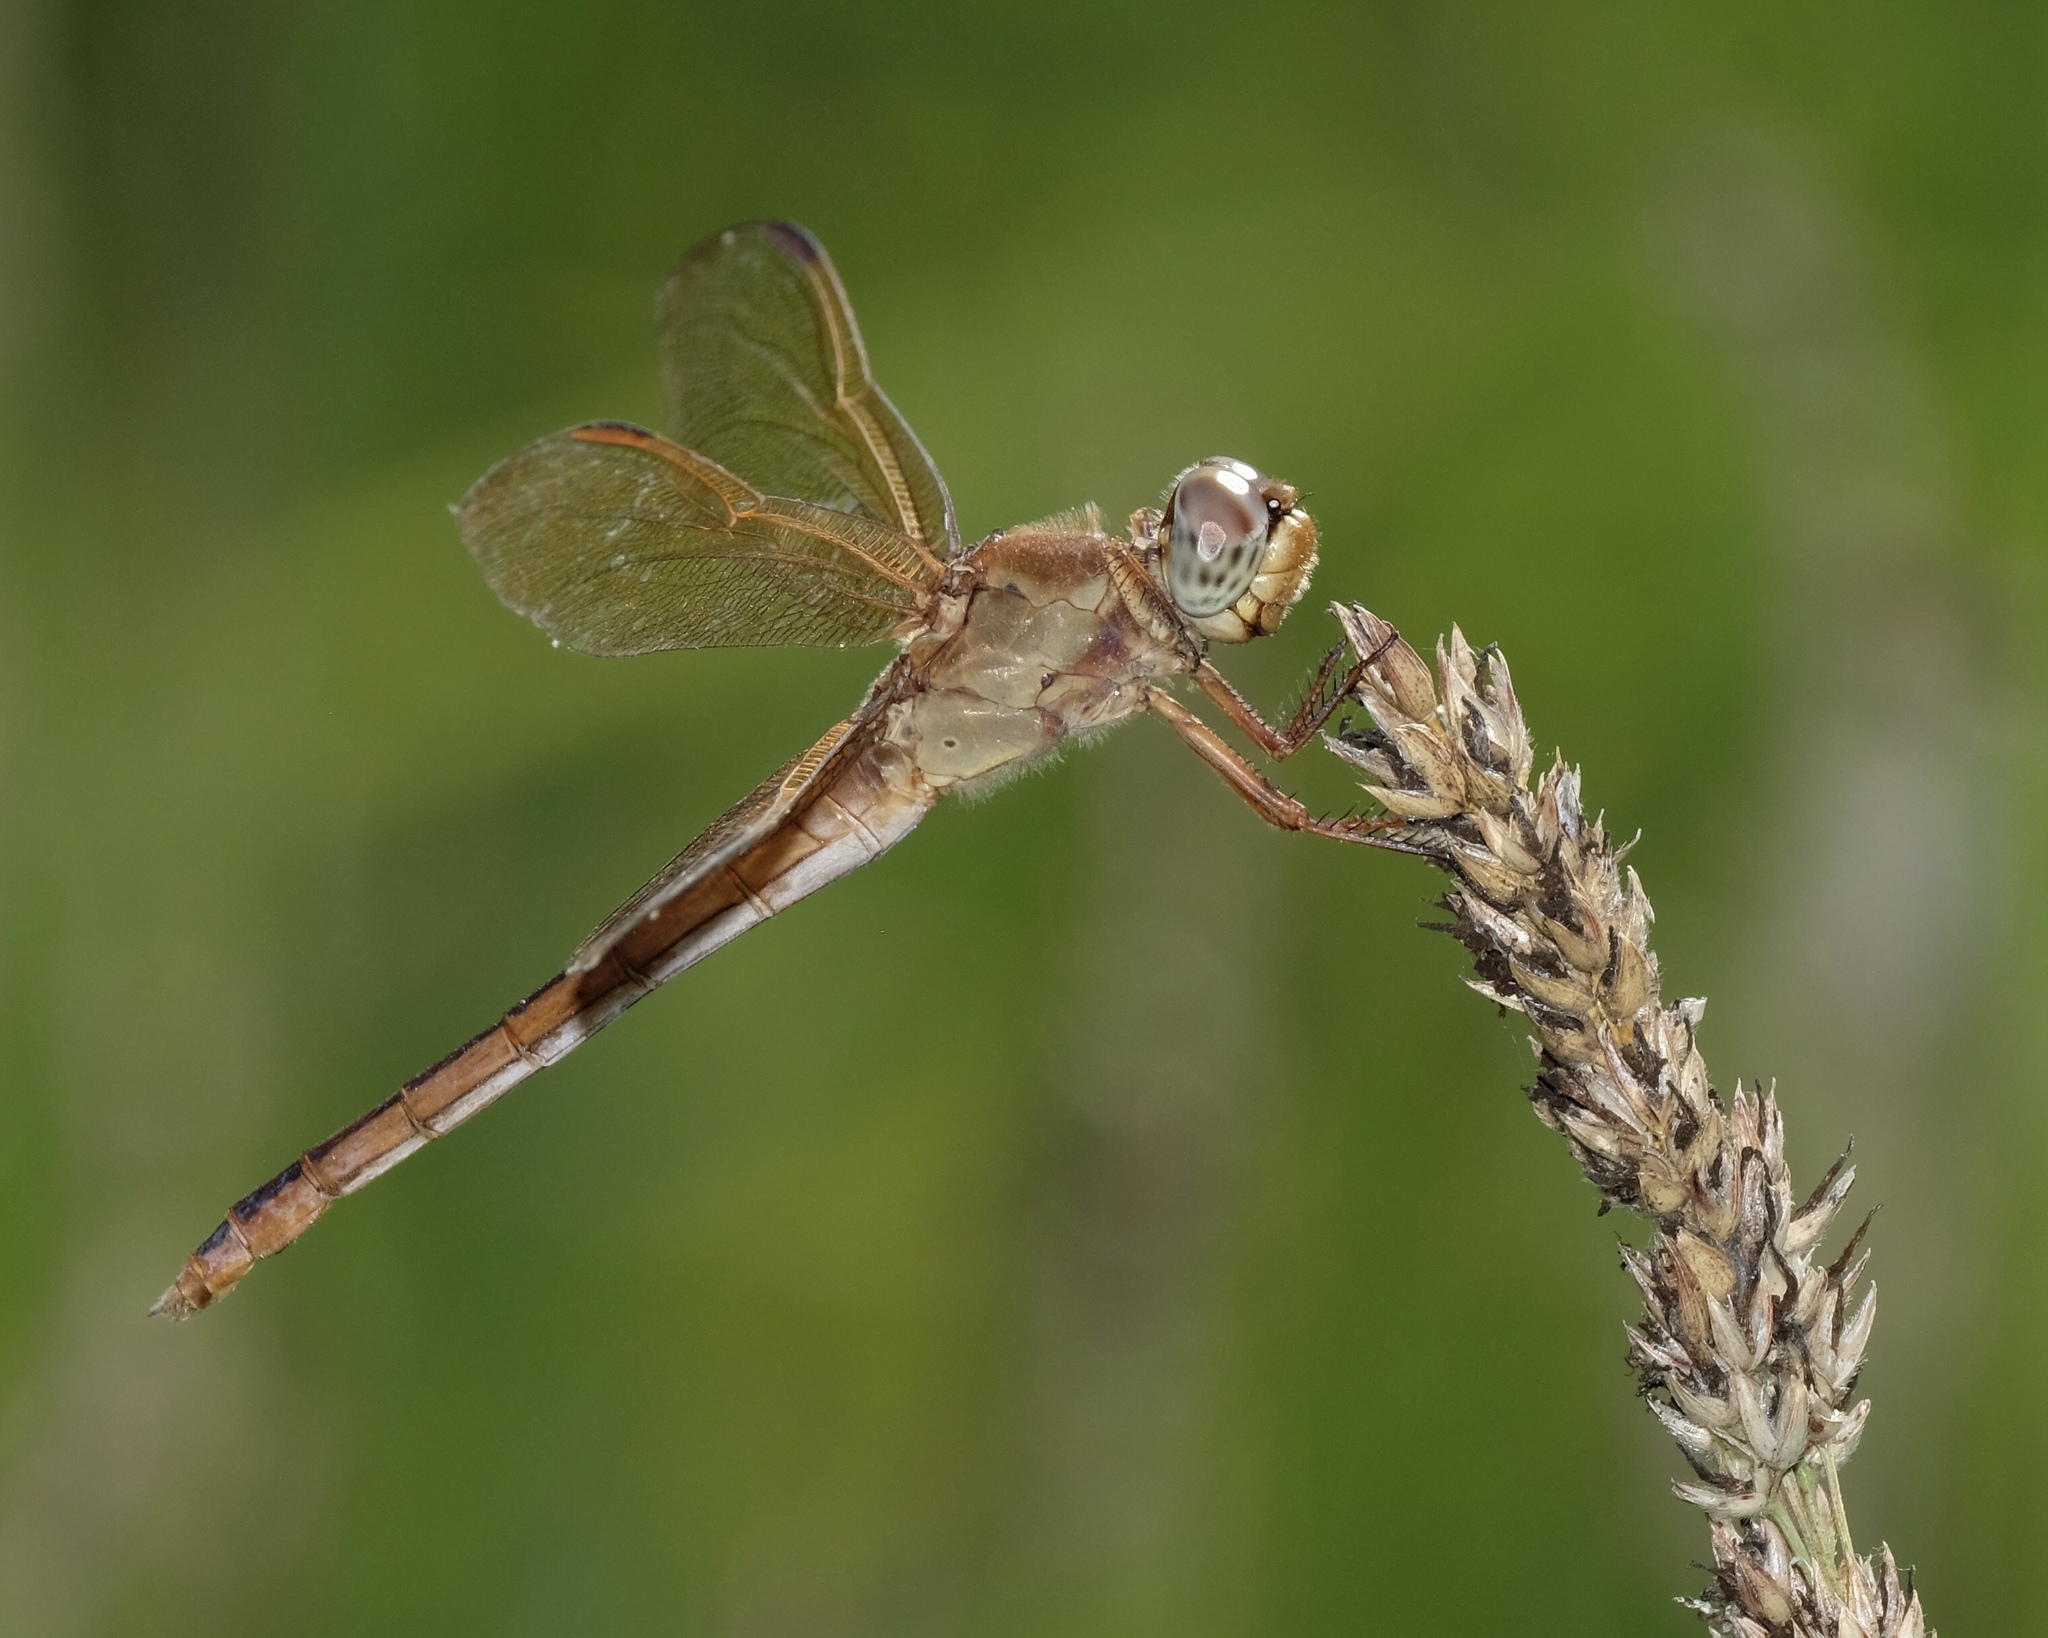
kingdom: Animalia
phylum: Arthropoda
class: Insecta
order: Odonata
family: Libellulidae
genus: Libellula
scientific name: Libellula needhami
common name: Needham's skimmer
